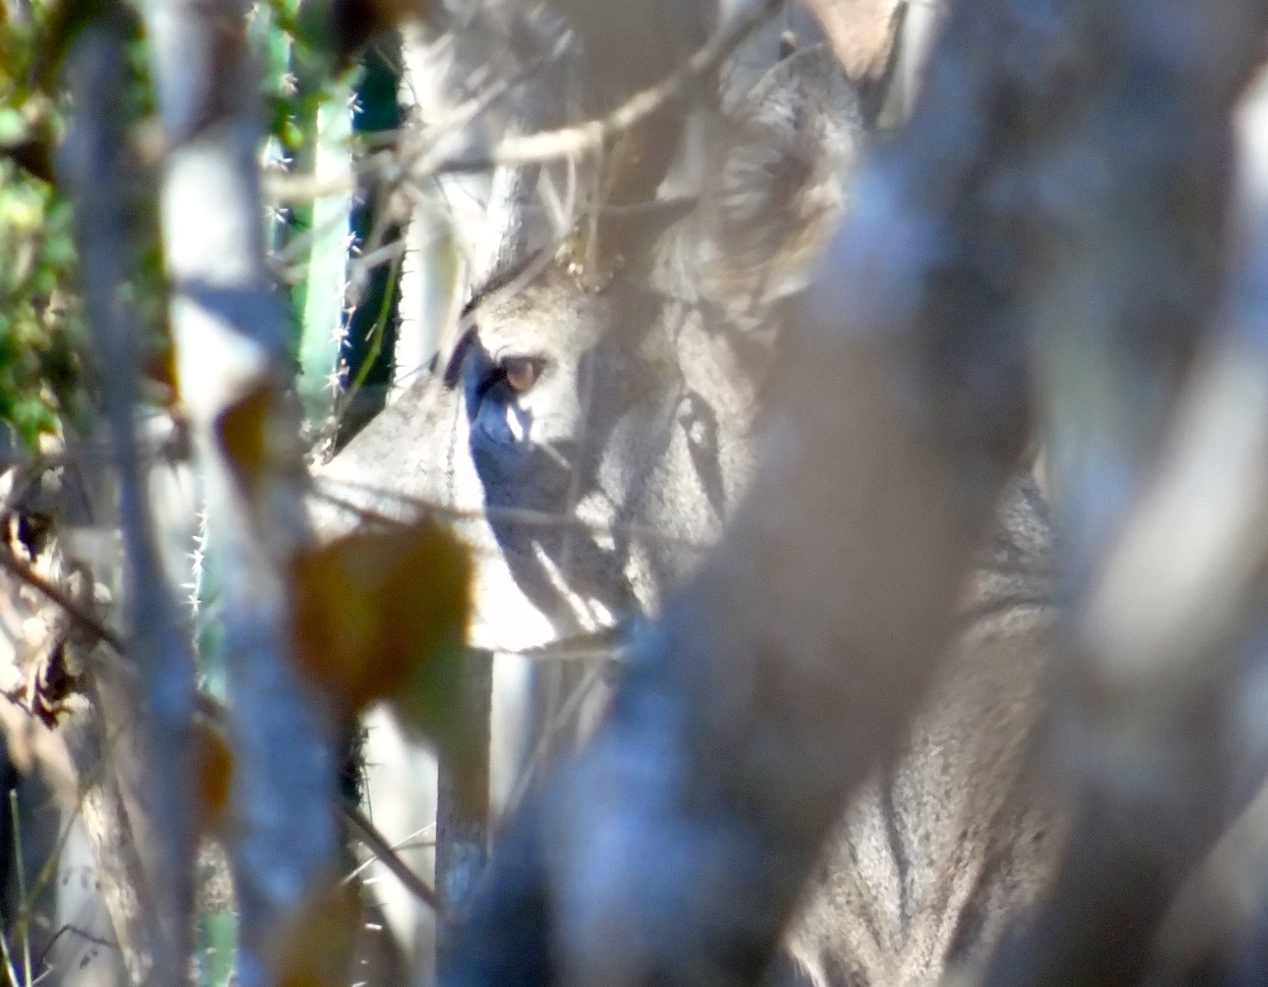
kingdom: Animalia
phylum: Chordata
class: Mammalia
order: Artiodactyla
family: Cervidae
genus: Odocoileus
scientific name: Odocoileus virginianus
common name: White-tailed deer
